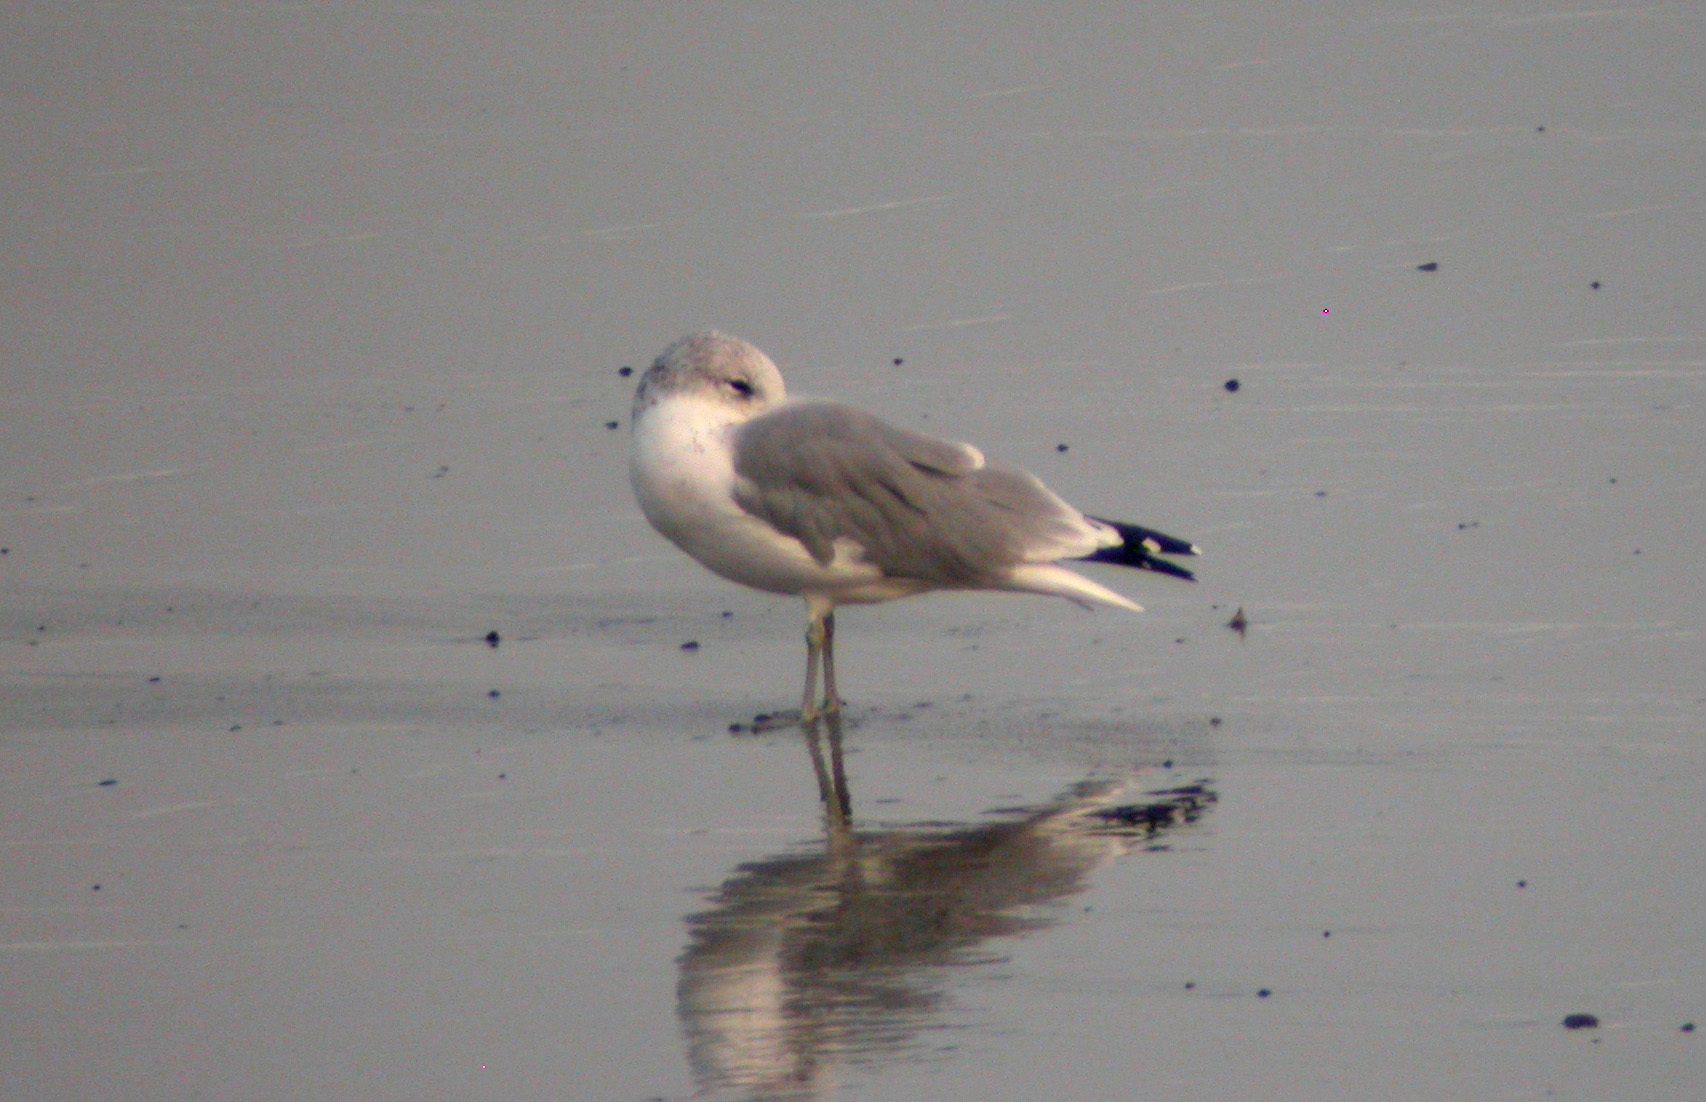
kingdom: Animalia
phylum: Chordata
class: Aves
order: Charadriiformes
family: Laridae
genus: Larus
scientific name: Larus canus
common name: Mew gull
